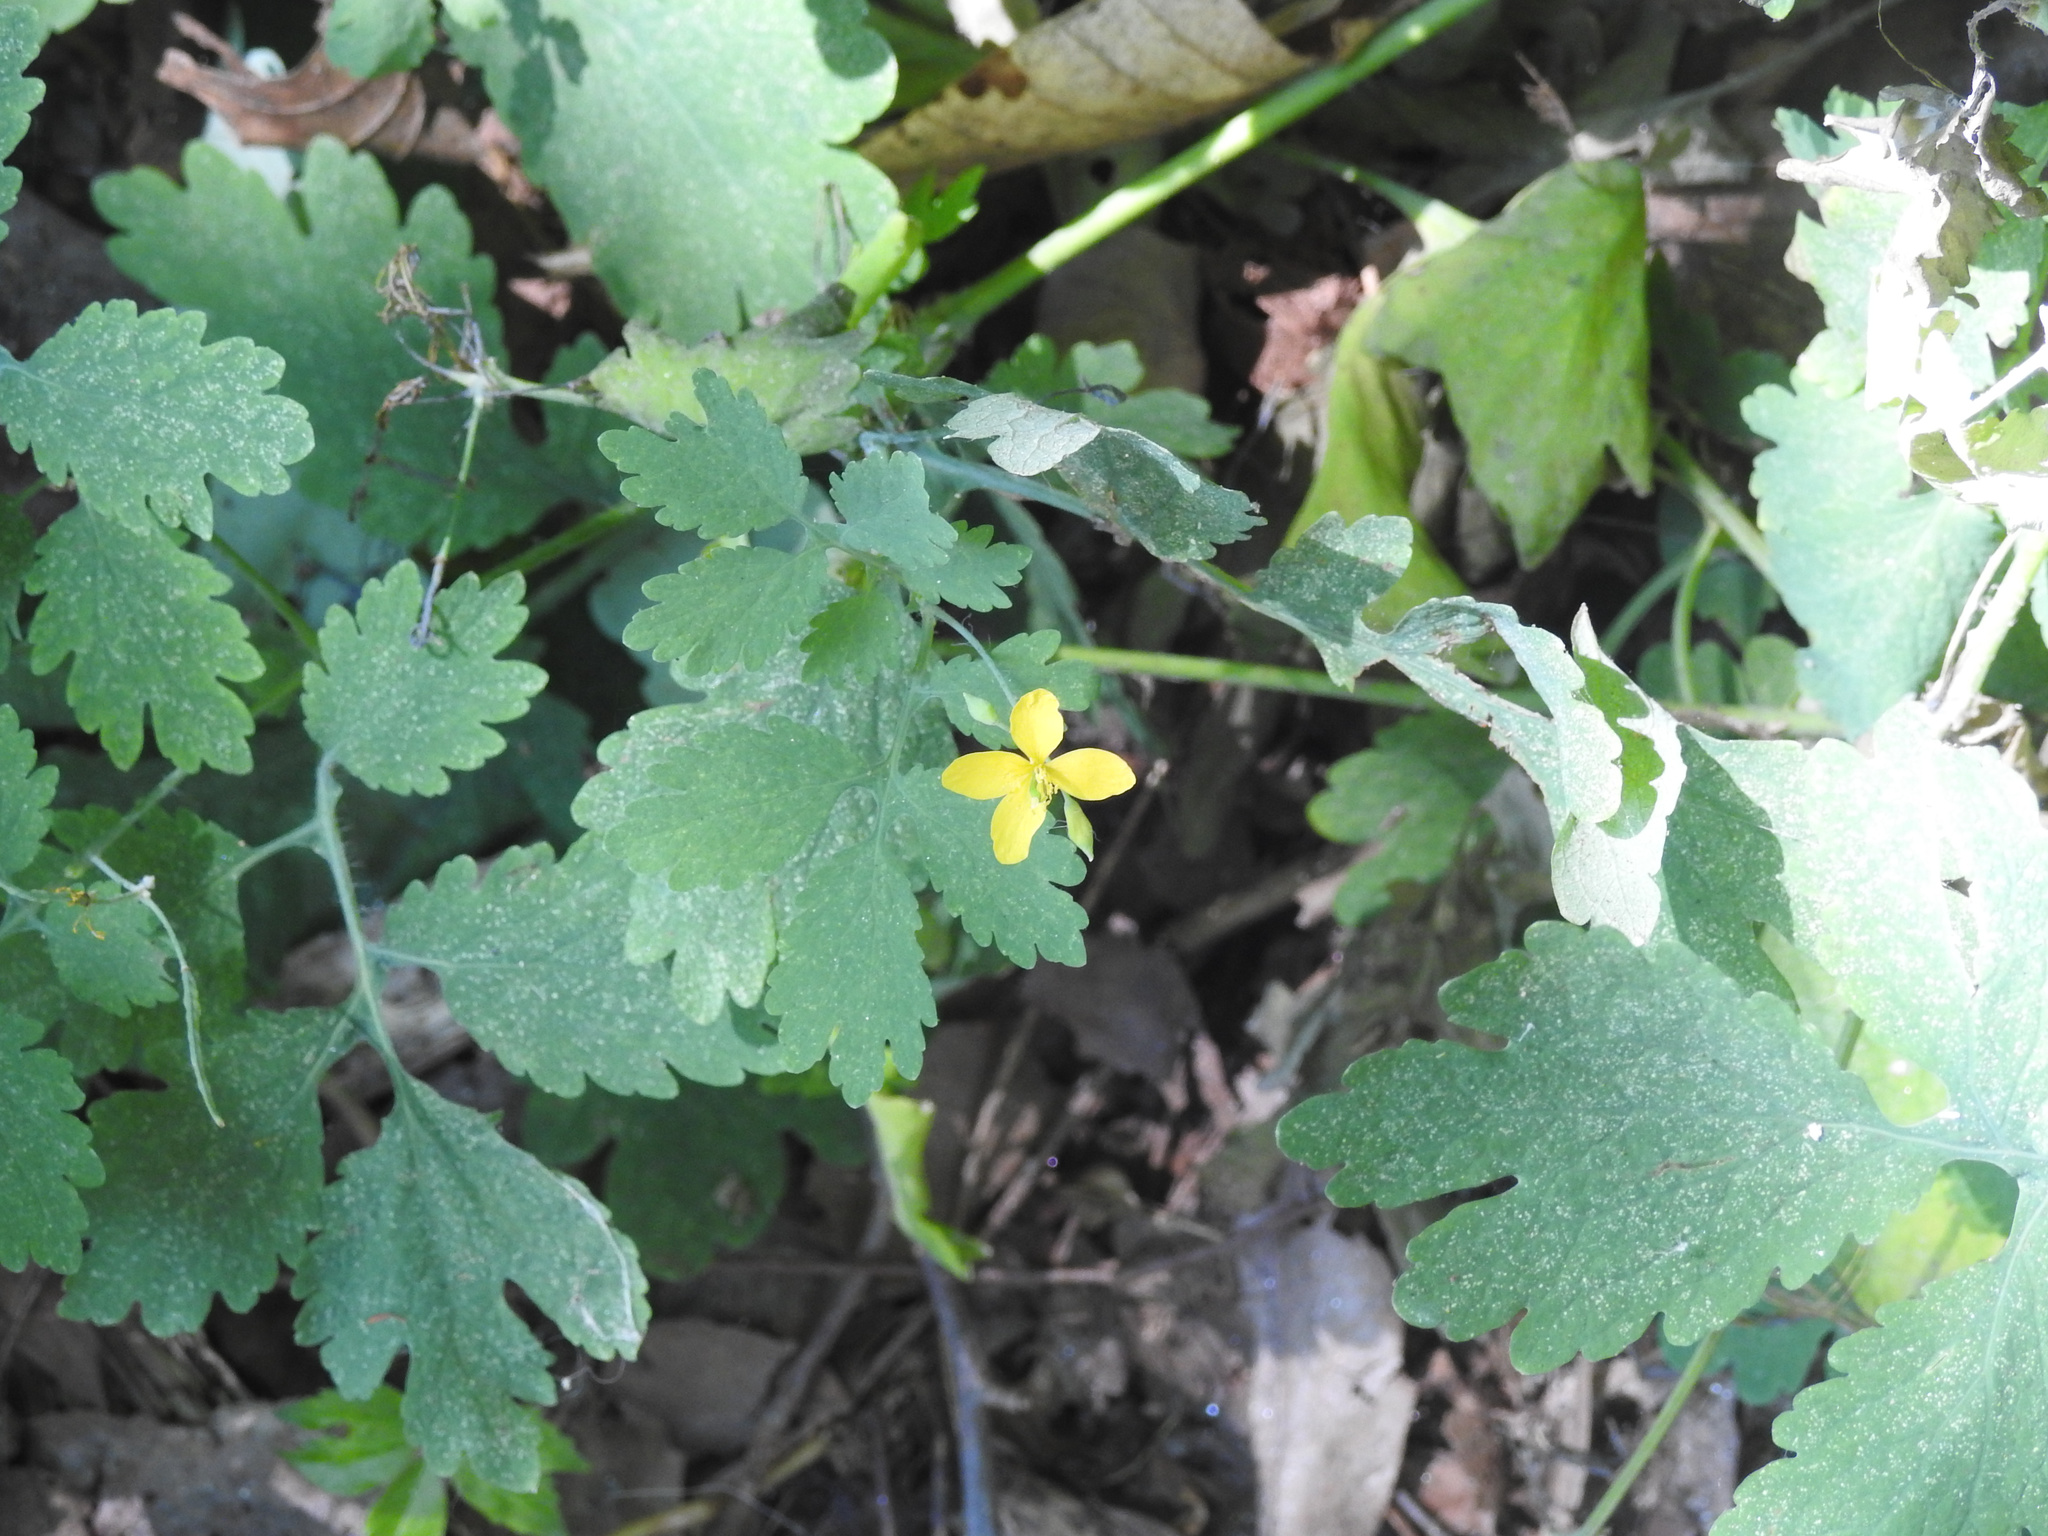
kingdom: Plantae
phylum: Tracheophyta
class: Magnoliopsida
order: Ranunculales
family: Papaveraceae
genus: Chelidonium
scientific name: Chelidonium majus
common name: Greater celandine
